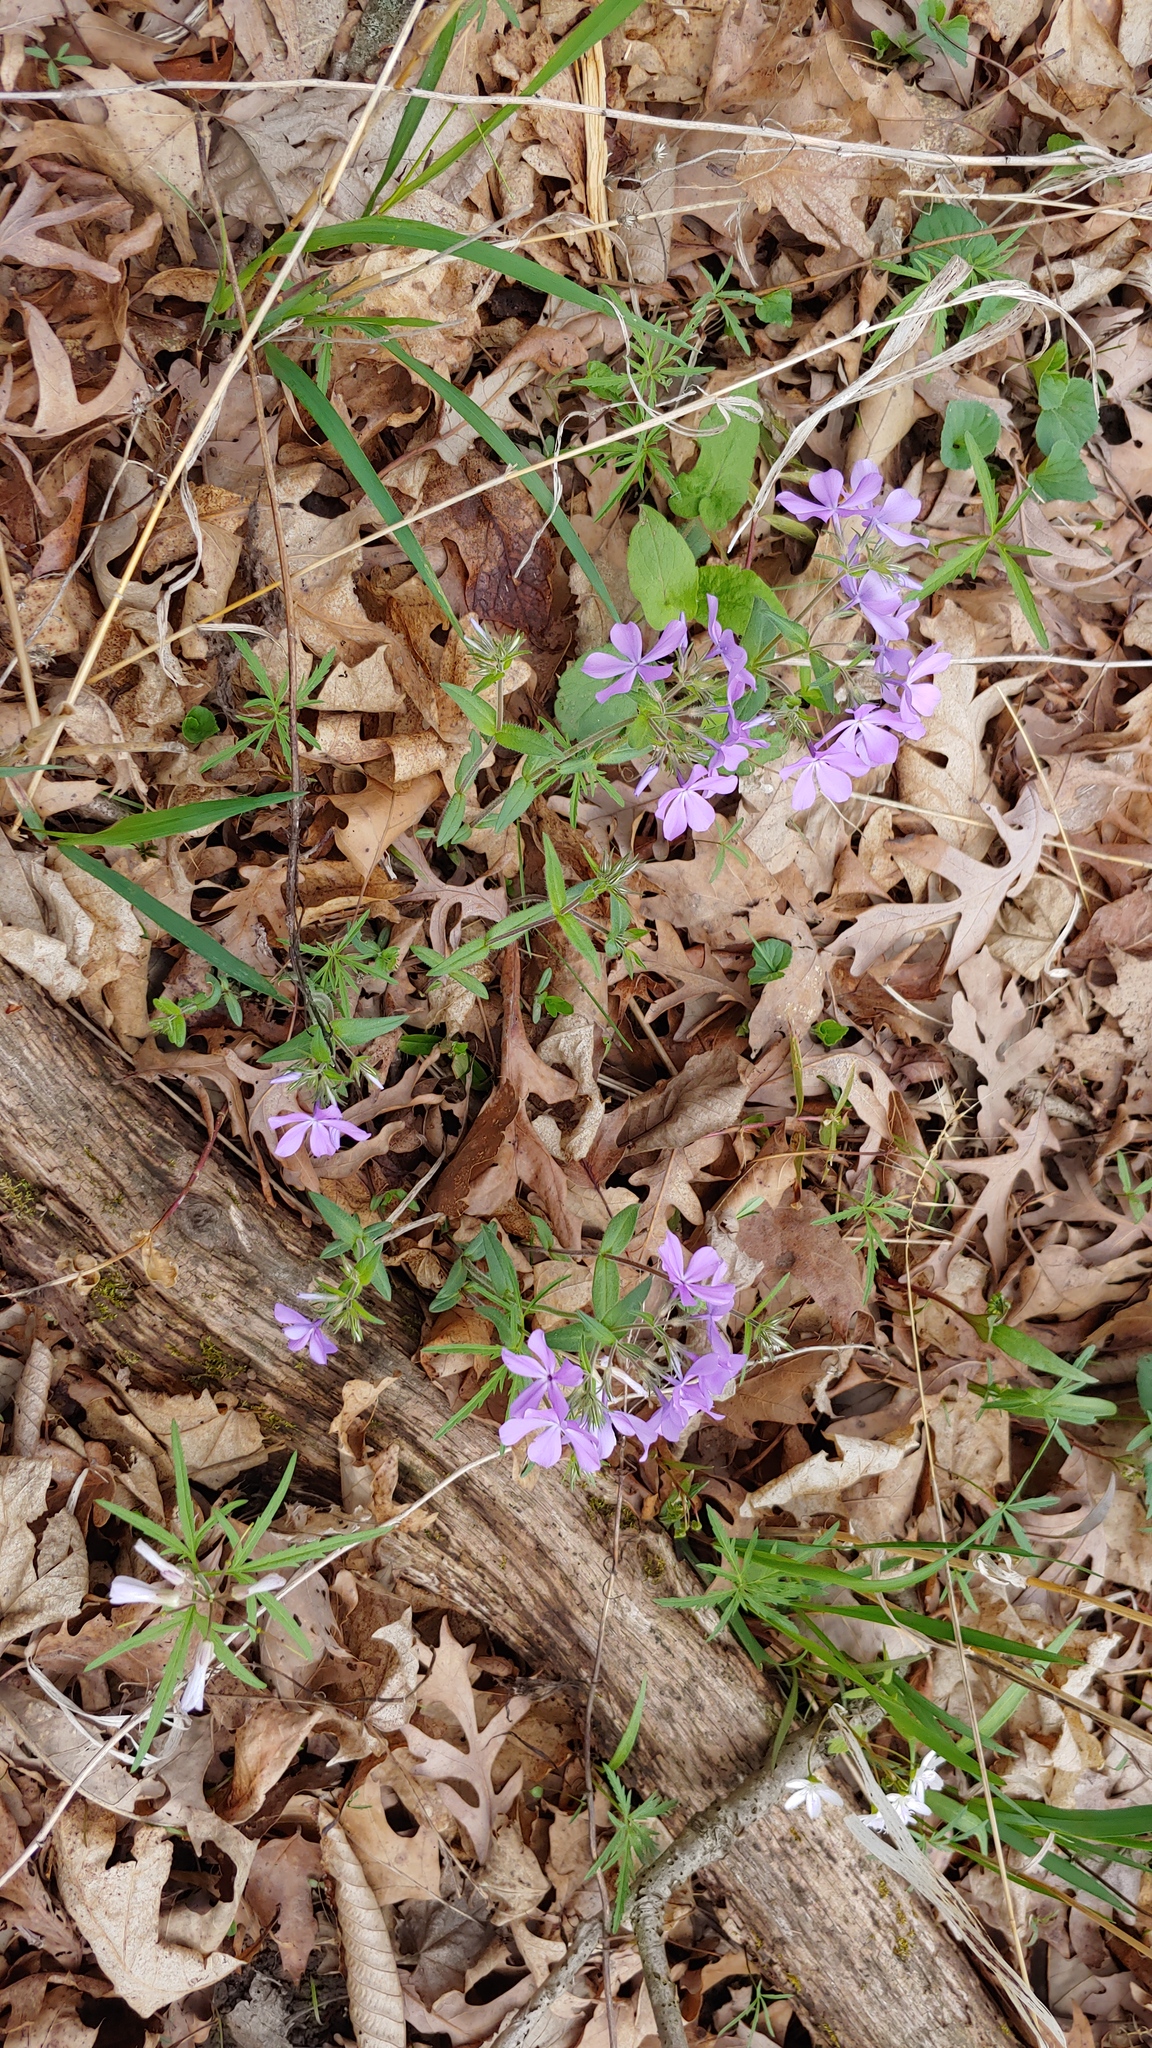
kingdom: Plantae
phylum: Tracheophyta
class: Magnoliopsida
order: Ericales
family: Polemoniaceae
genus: Phlox
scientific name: Phlox divaricata
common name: Blue phlox
